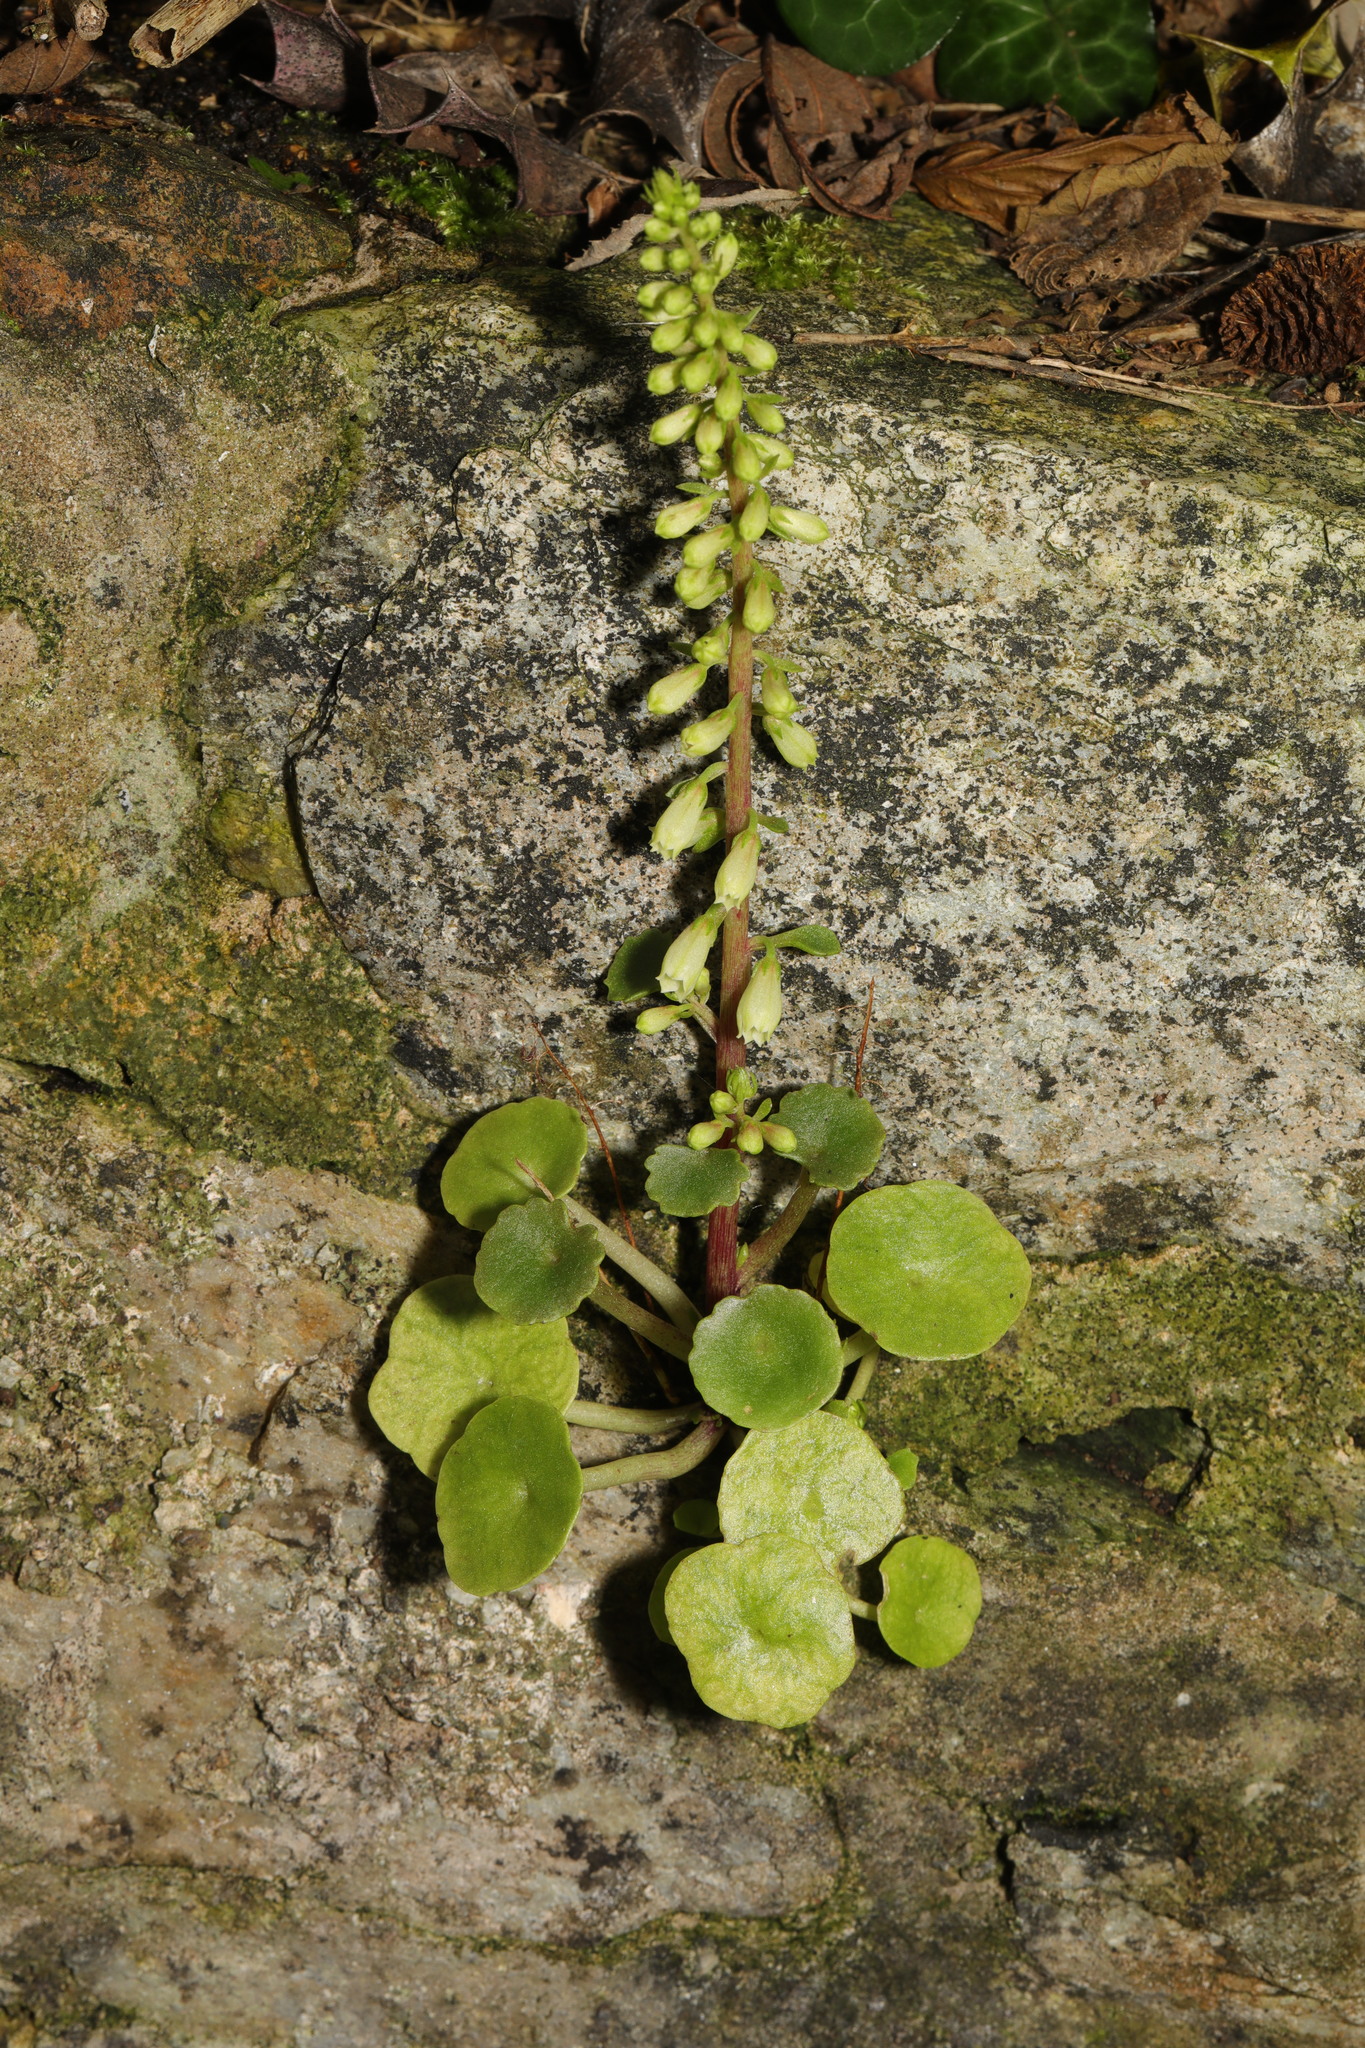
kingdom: Plantae
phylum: Tracheophyta
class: Magnoliopsida
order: Saxifragales
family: Crassulaceae
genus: Umbilicus
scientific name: Umbilicus rupestris
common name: Navelwort
